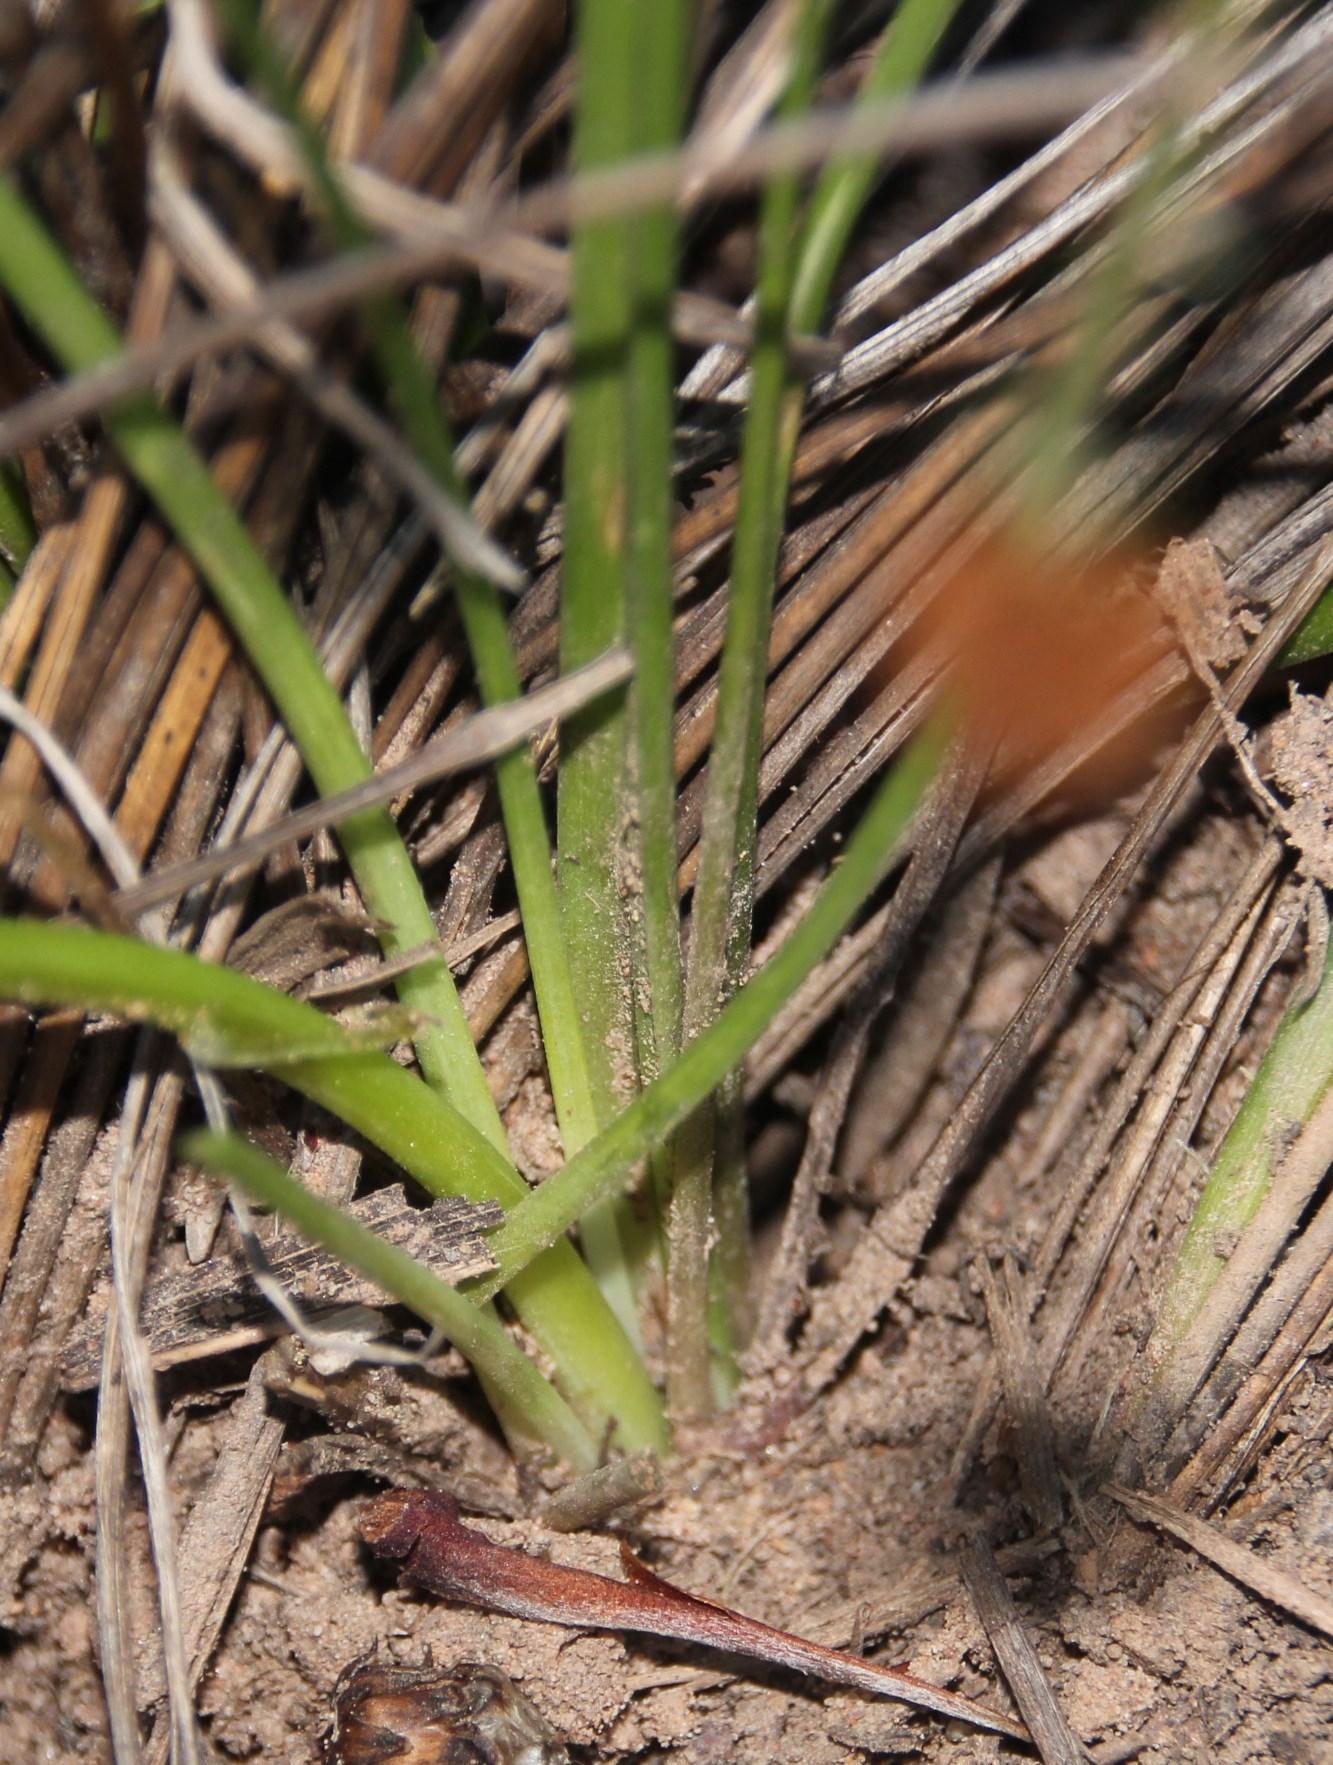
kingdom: Plantae
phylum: Tracheophyta
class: Liliopsida
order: Asparagales
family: Asparagaceae
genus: Drimia
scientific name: Drimia media
